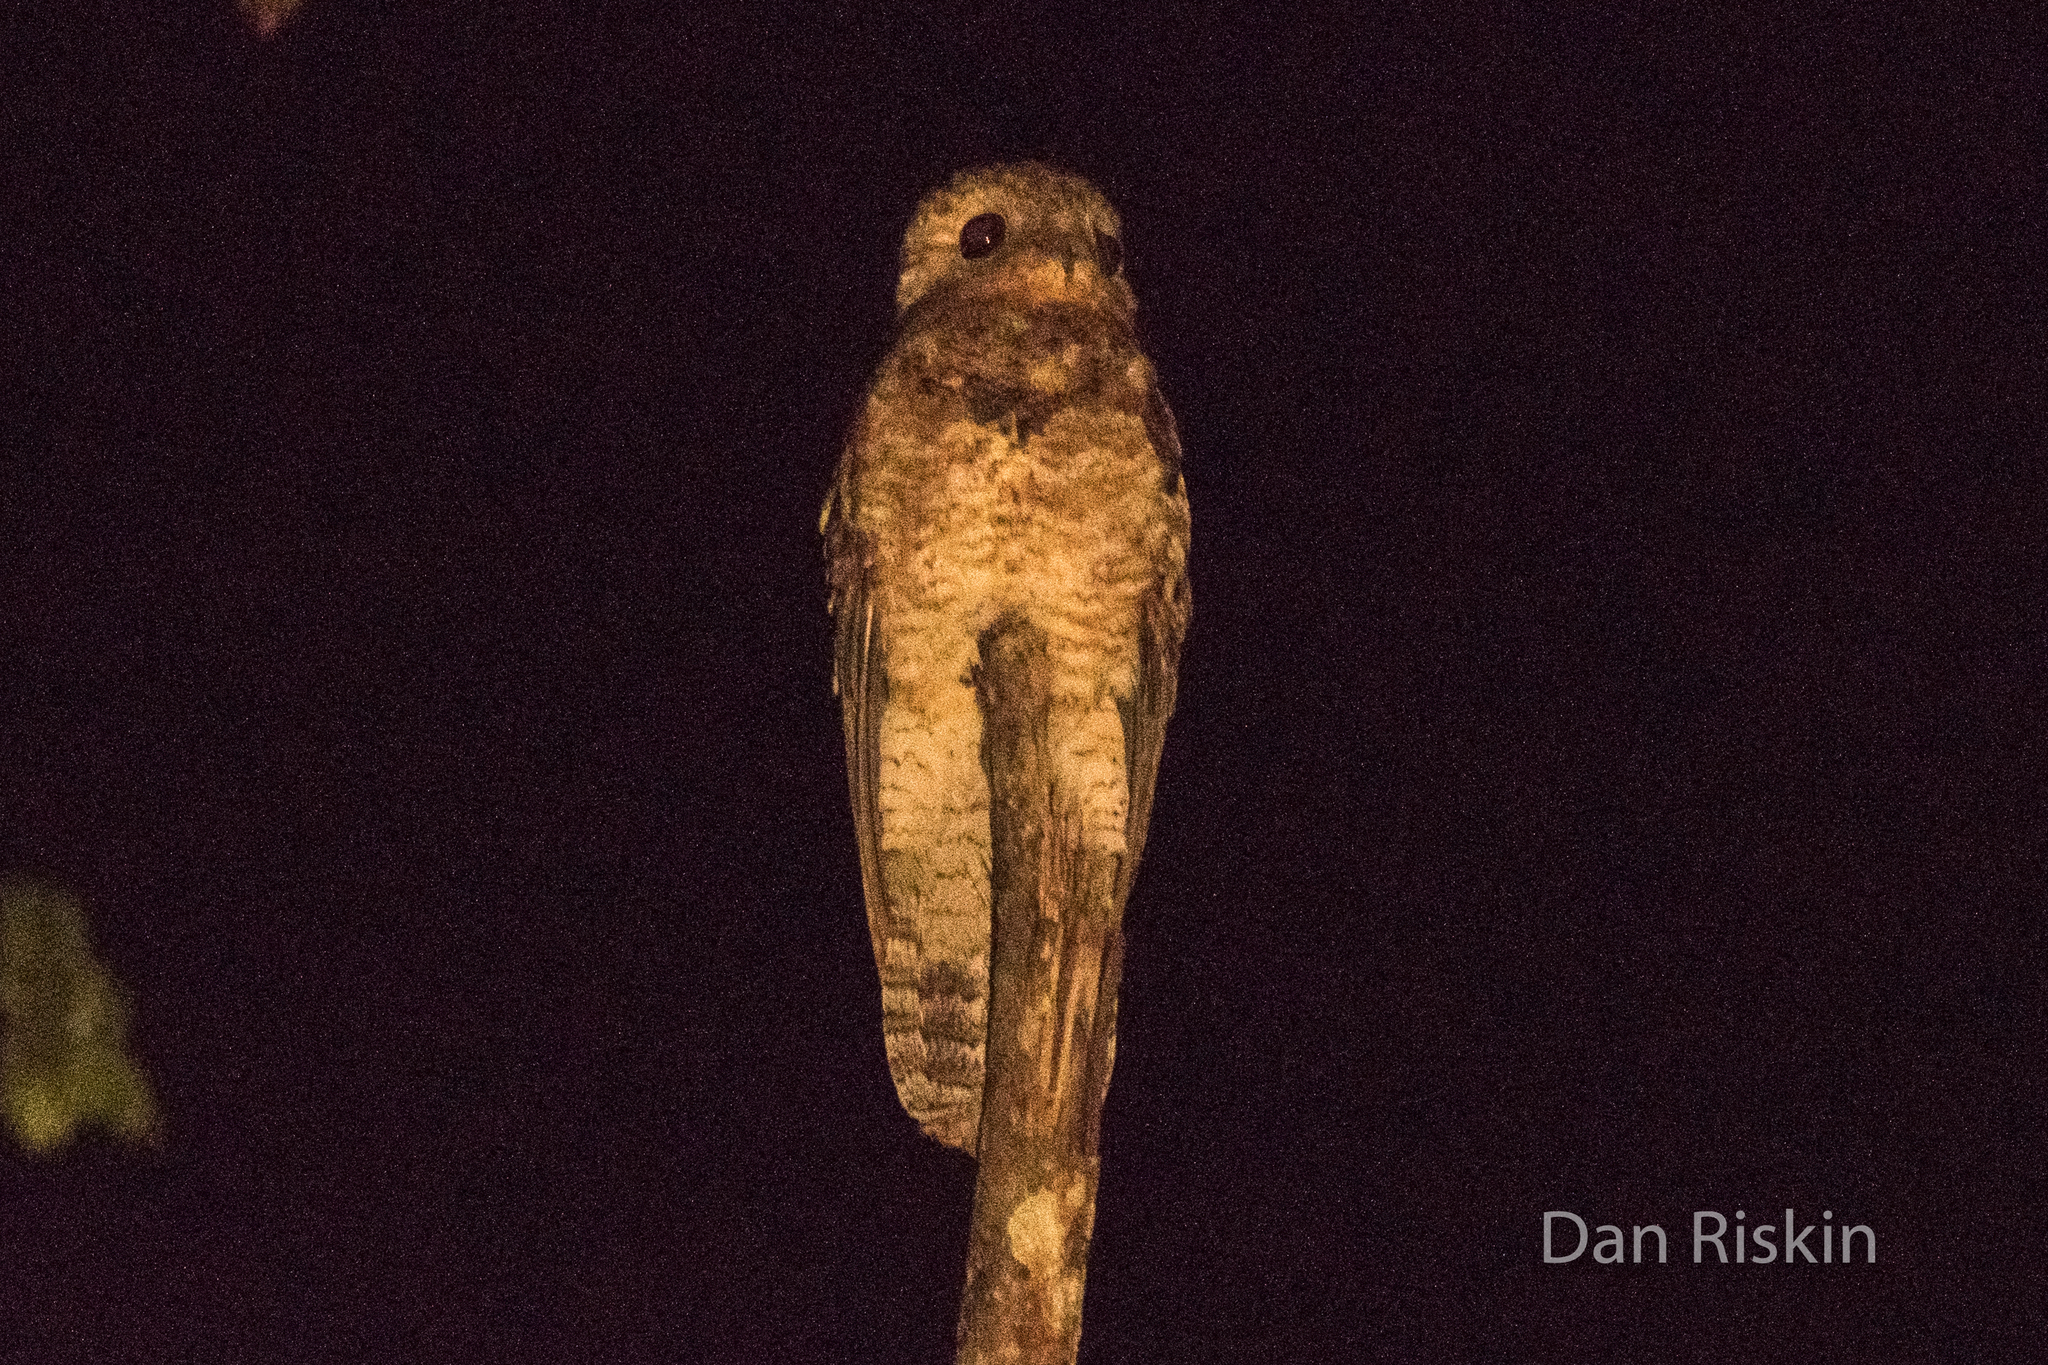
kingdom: Animalia
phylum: Chordata
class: Aves
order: Nyctibiiformes
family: Nyctibiidae
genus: Nyctibius
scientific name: Nyctibius grandis
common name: Great potoo
